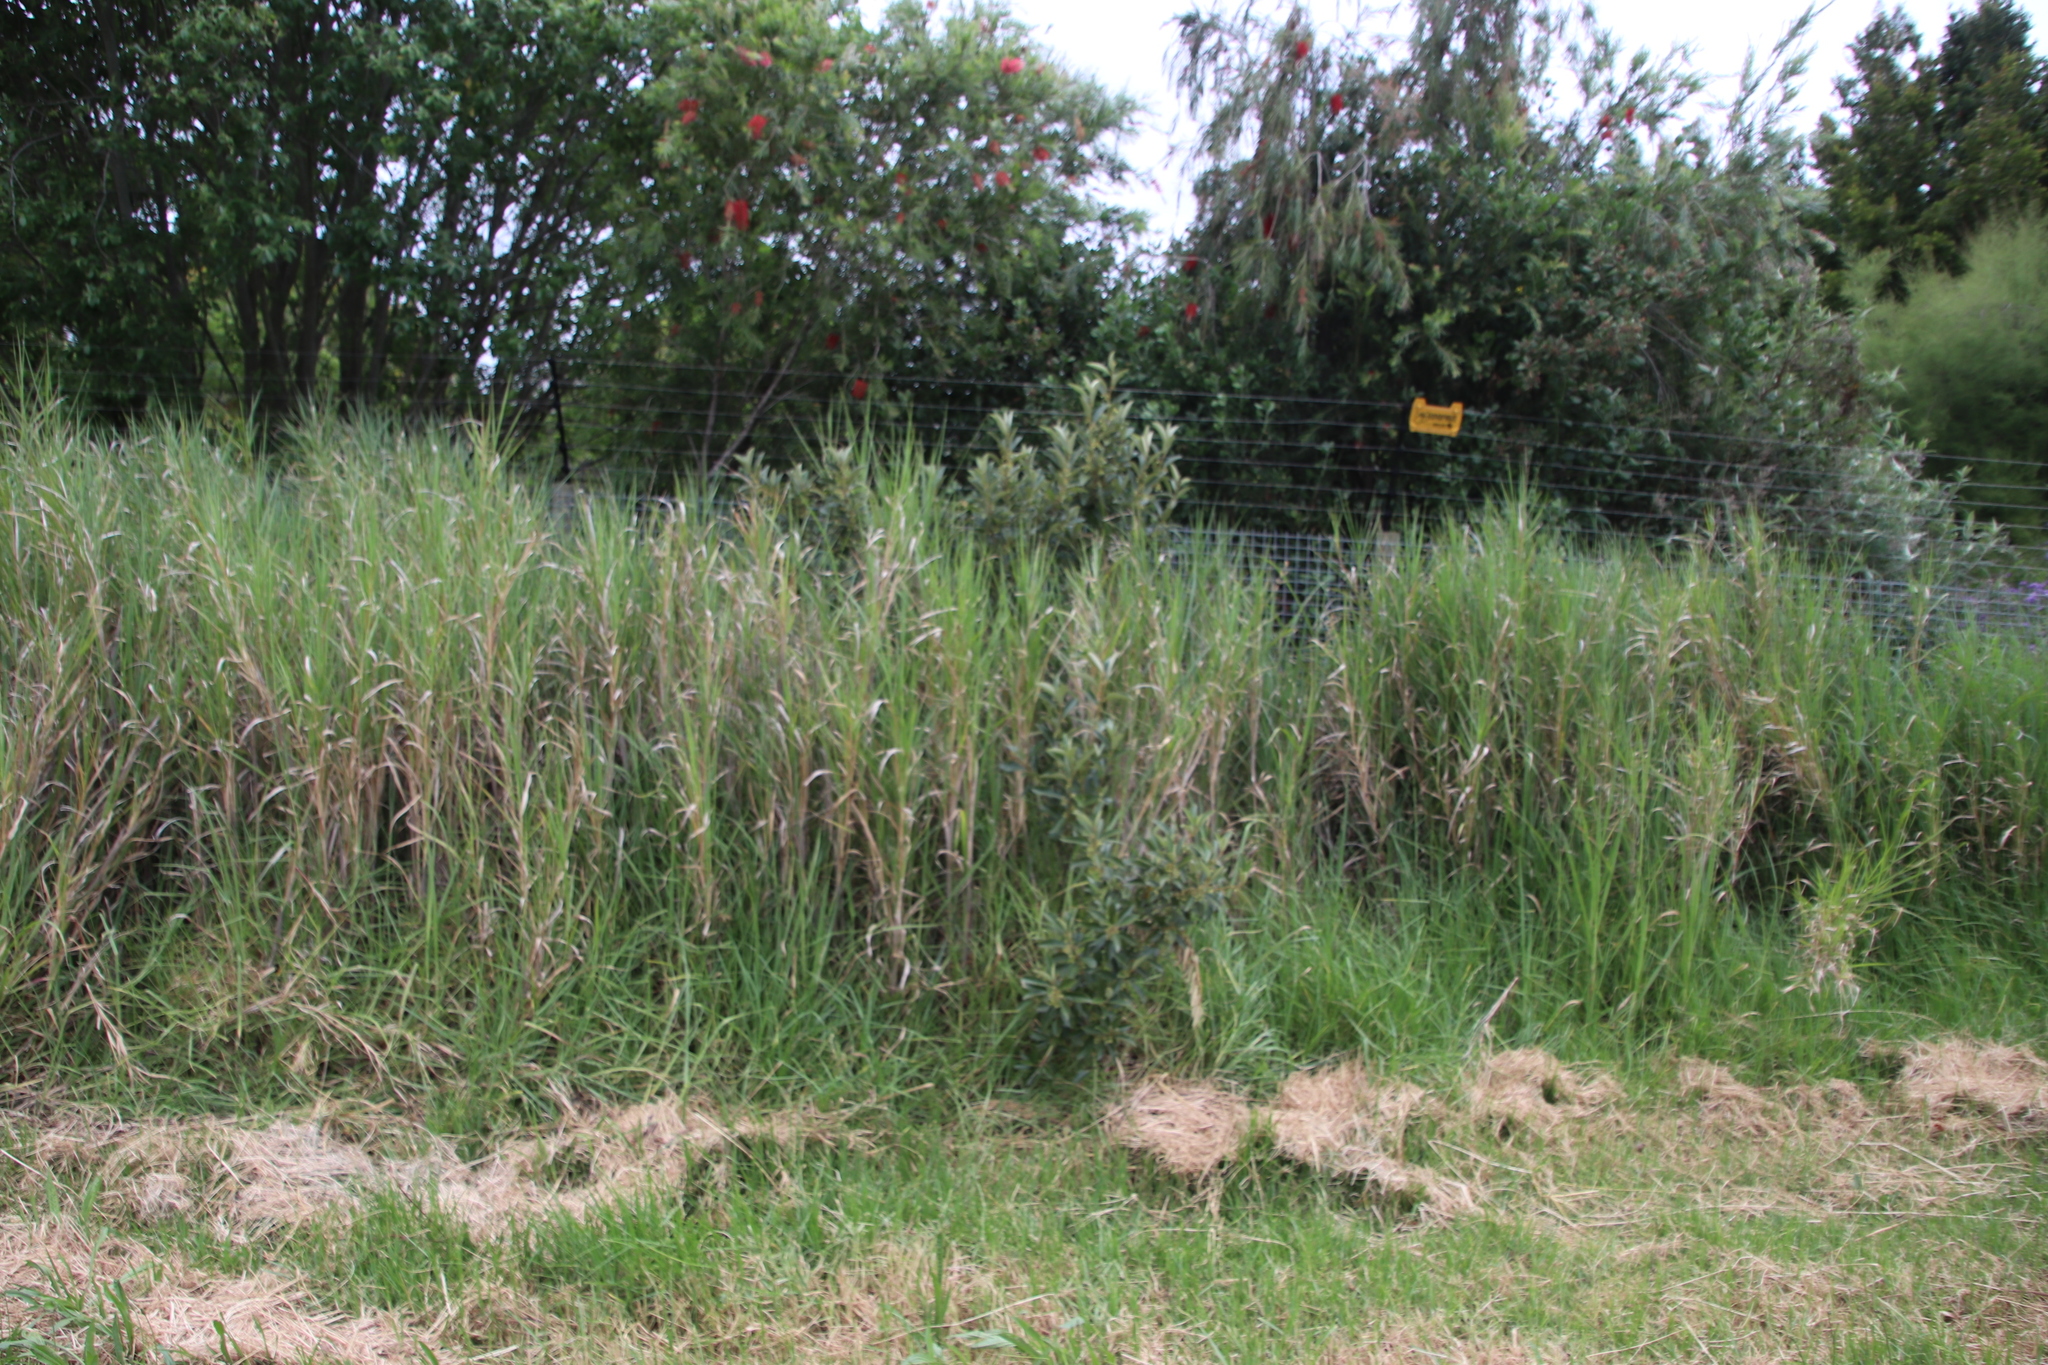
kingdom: Plantae
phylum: Tracheophyta
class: Liliopsida
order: Poales
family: Poaceae
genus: Echinochloa
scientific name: Echinochloa pyramidalis
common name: Antelope grass
